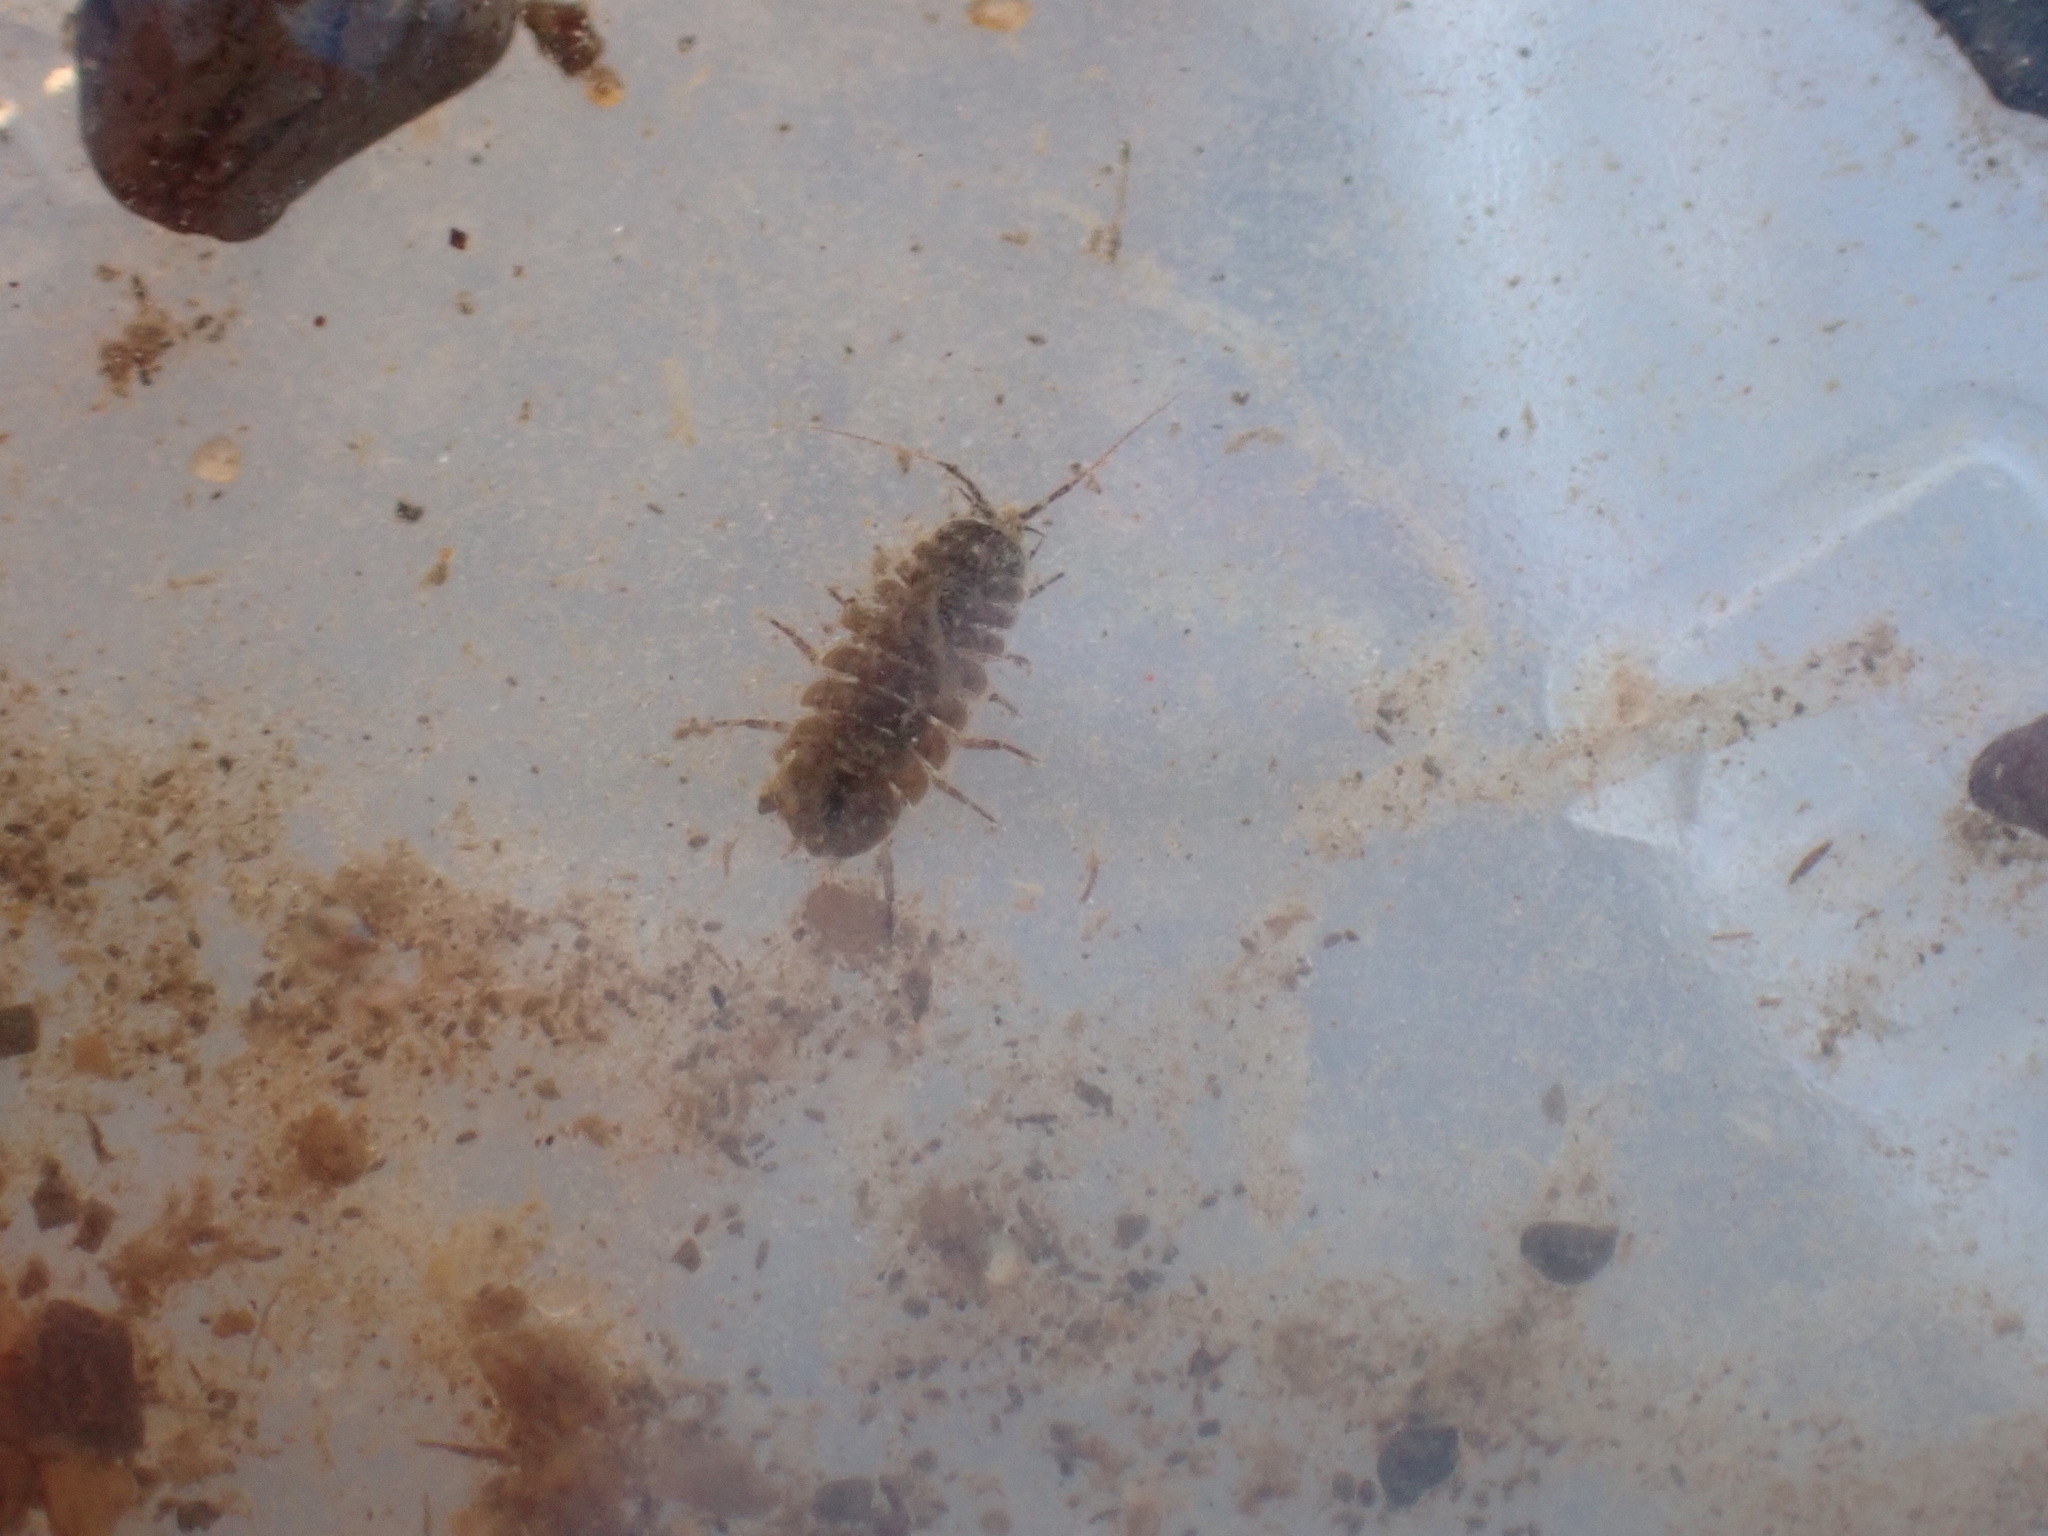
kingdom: Animalia
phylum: Arthropoda
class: Malacostraca
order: Isopoda
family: Asellidae
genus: Lirceus
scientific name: Lirceus brachyurus
